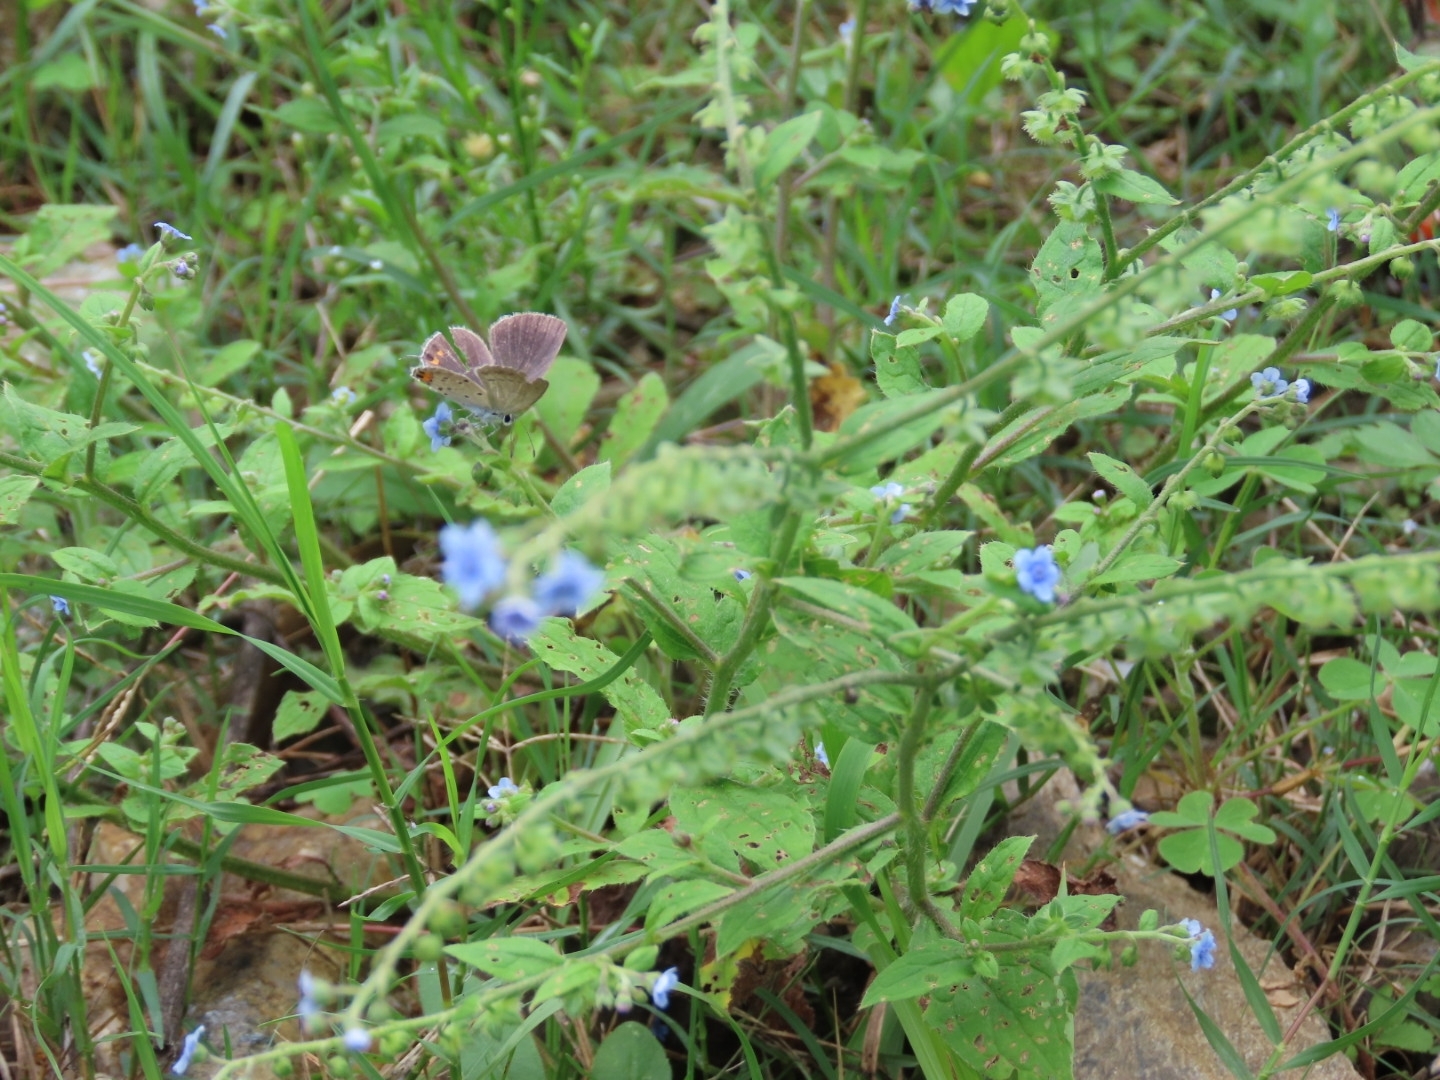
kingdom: Animalia
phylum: Arthropoda
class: Insecta
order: Lepidoptera
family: Lycaenidae
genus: Everes
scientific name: Everes lacturnus
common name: Orange-tipped pea-blue
